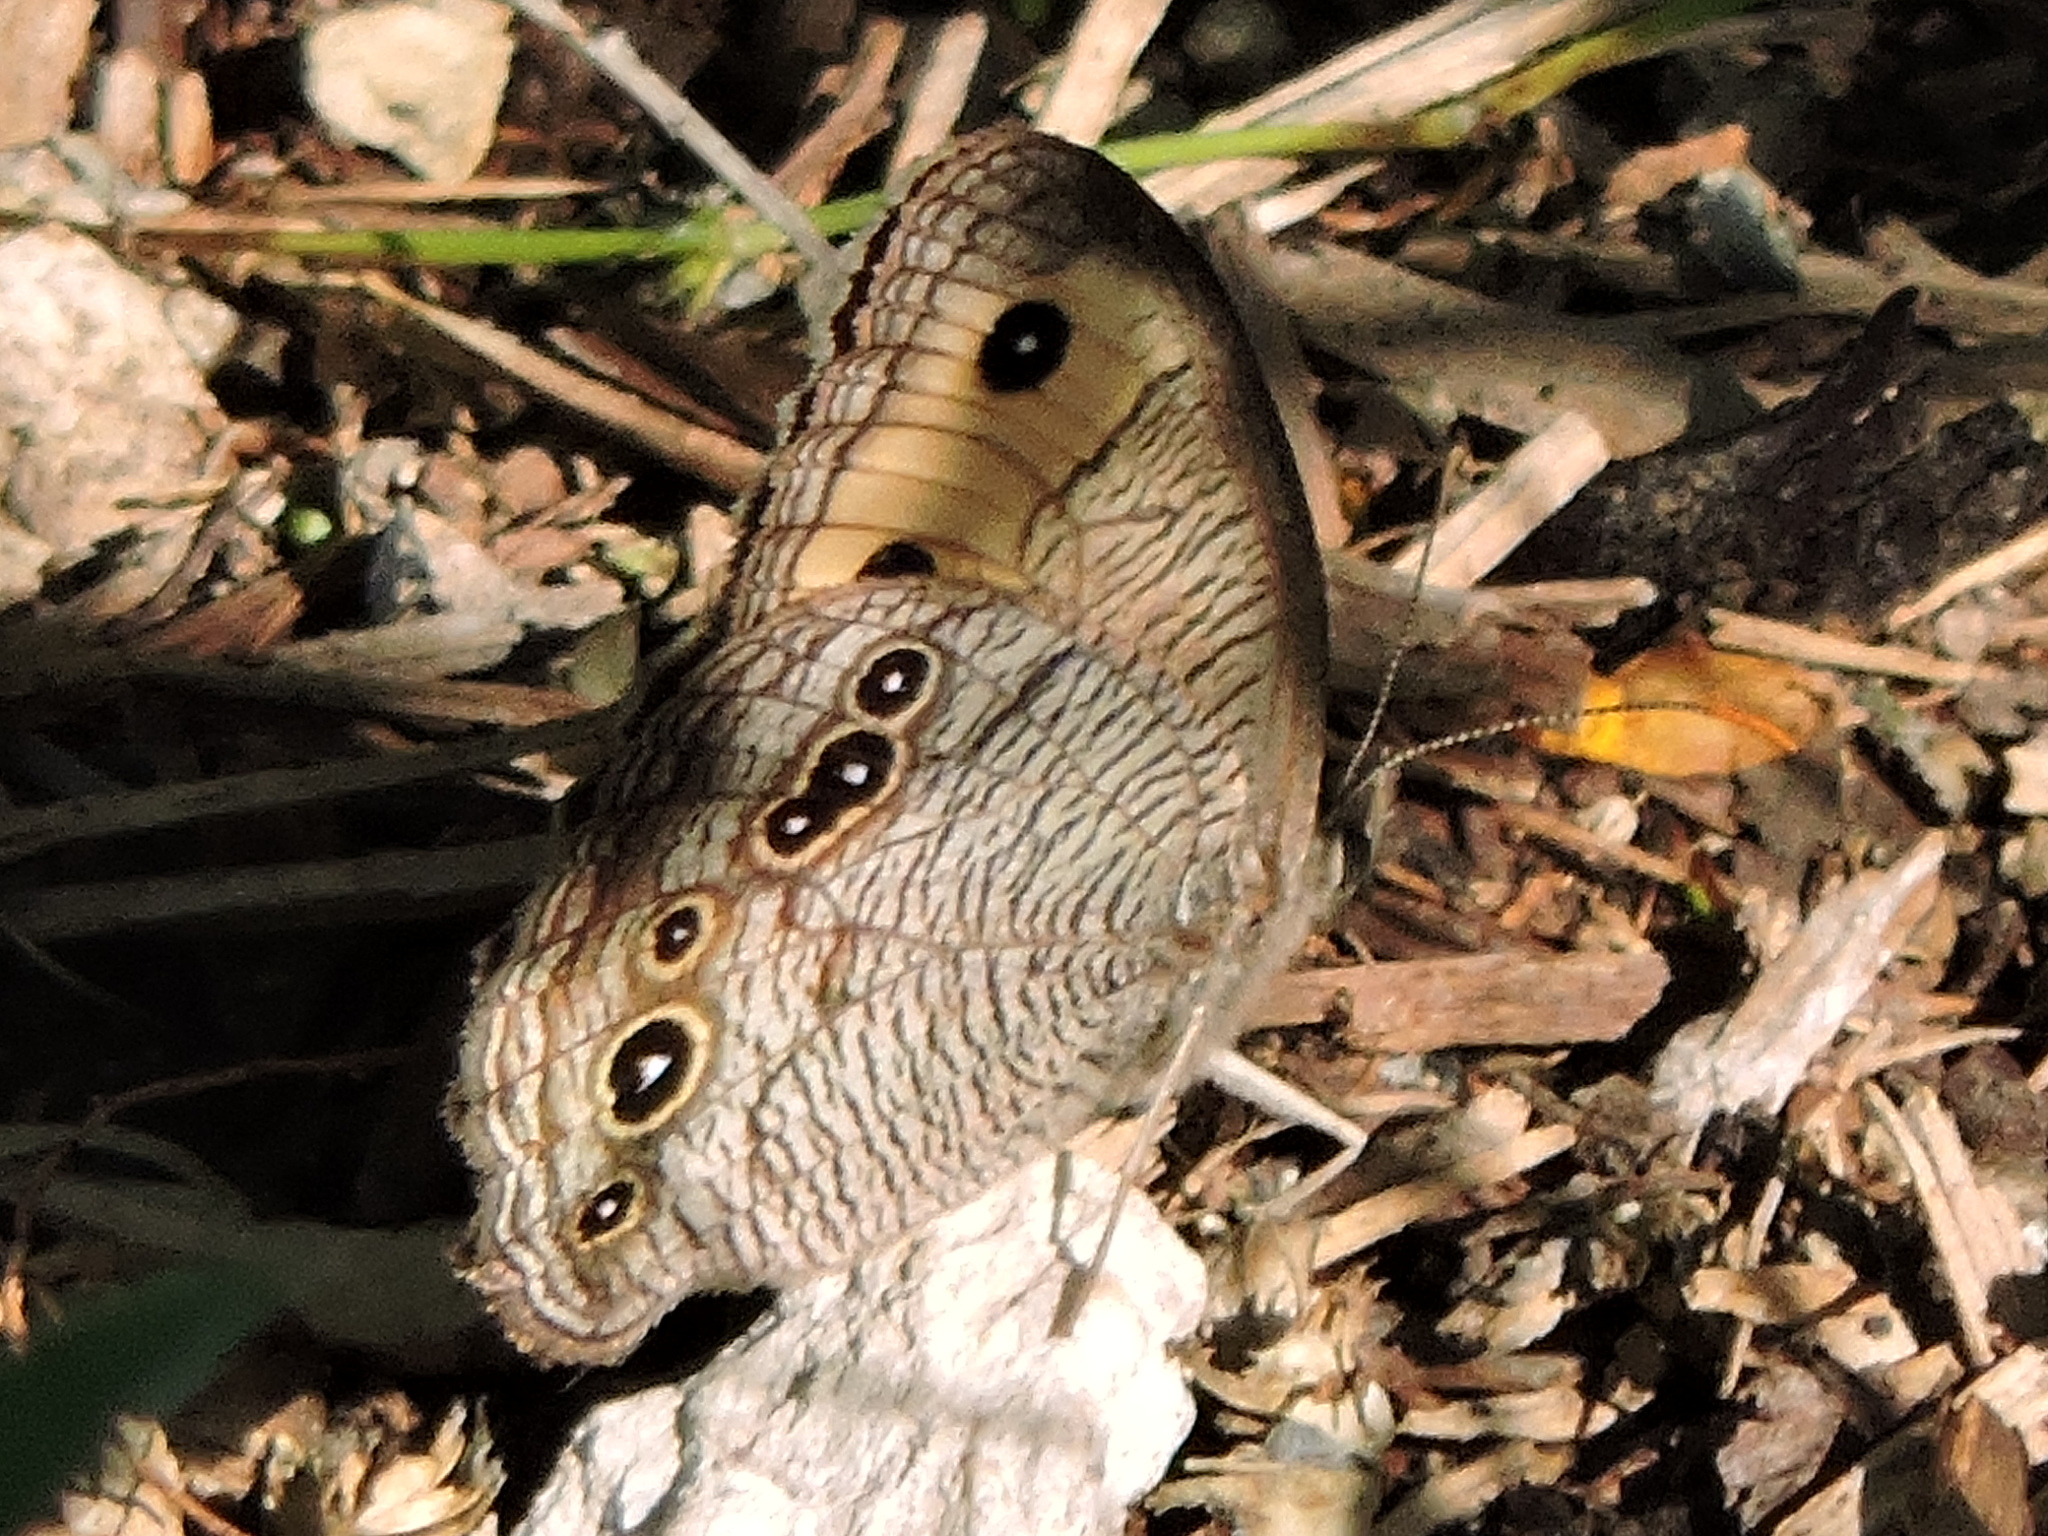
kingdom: Animalia
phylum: Arthropoda
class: Insecta
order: Lepidoptera
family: Nymphalidae
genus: Cercyonis
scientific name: Cercyonis pegala
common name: Common wood-nymph
